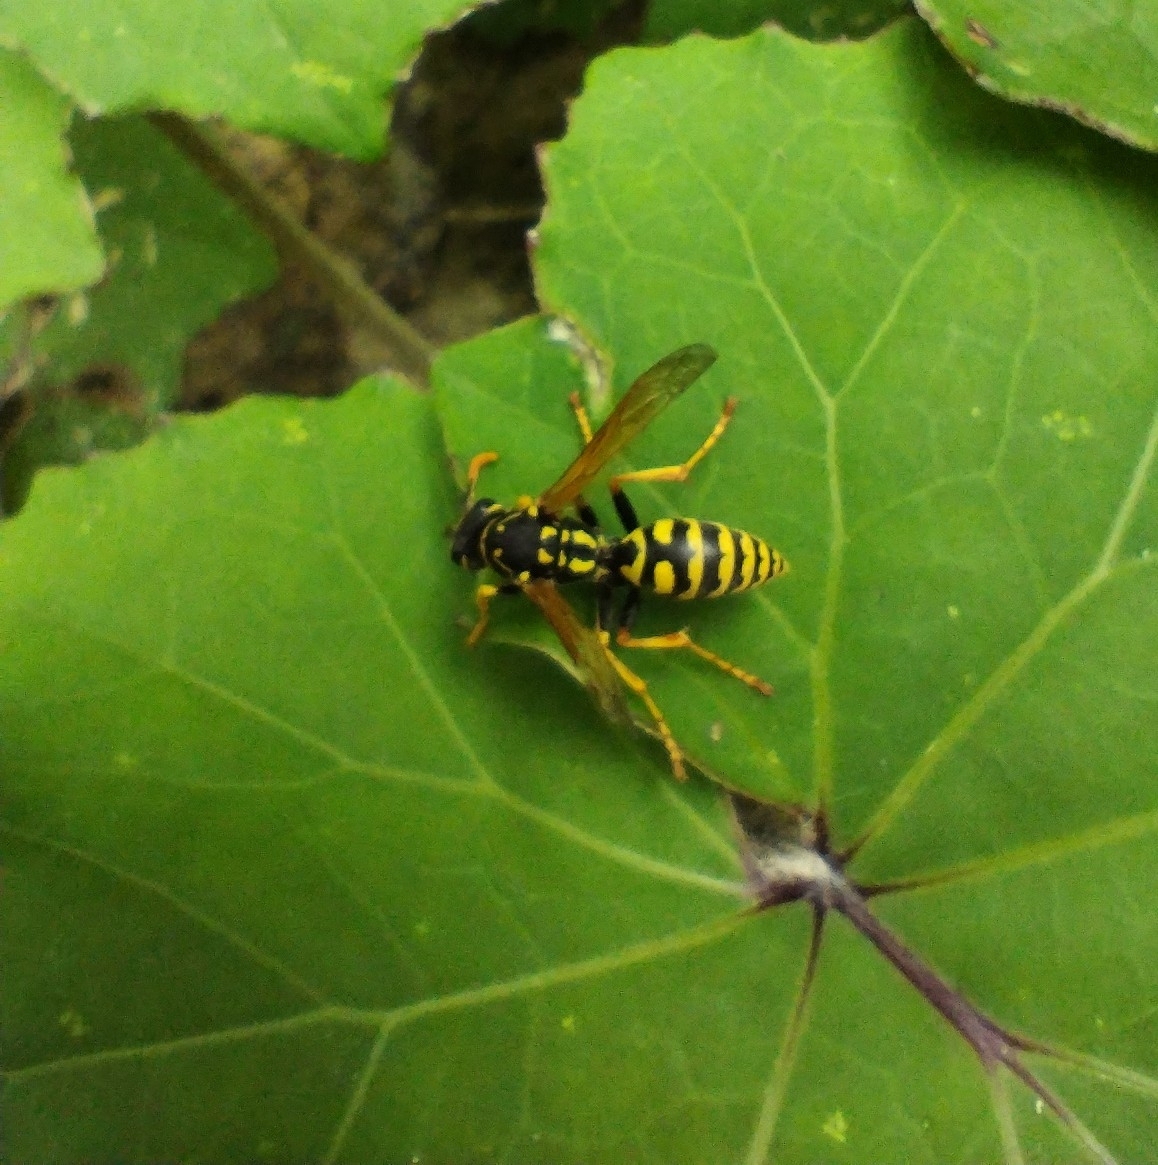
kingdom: Animalia
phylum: Arthropoda
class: Insecta
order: Hymenoptera
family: Eumenidae
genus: Polistes
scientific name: Polistes dominula
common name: Paper wasp
